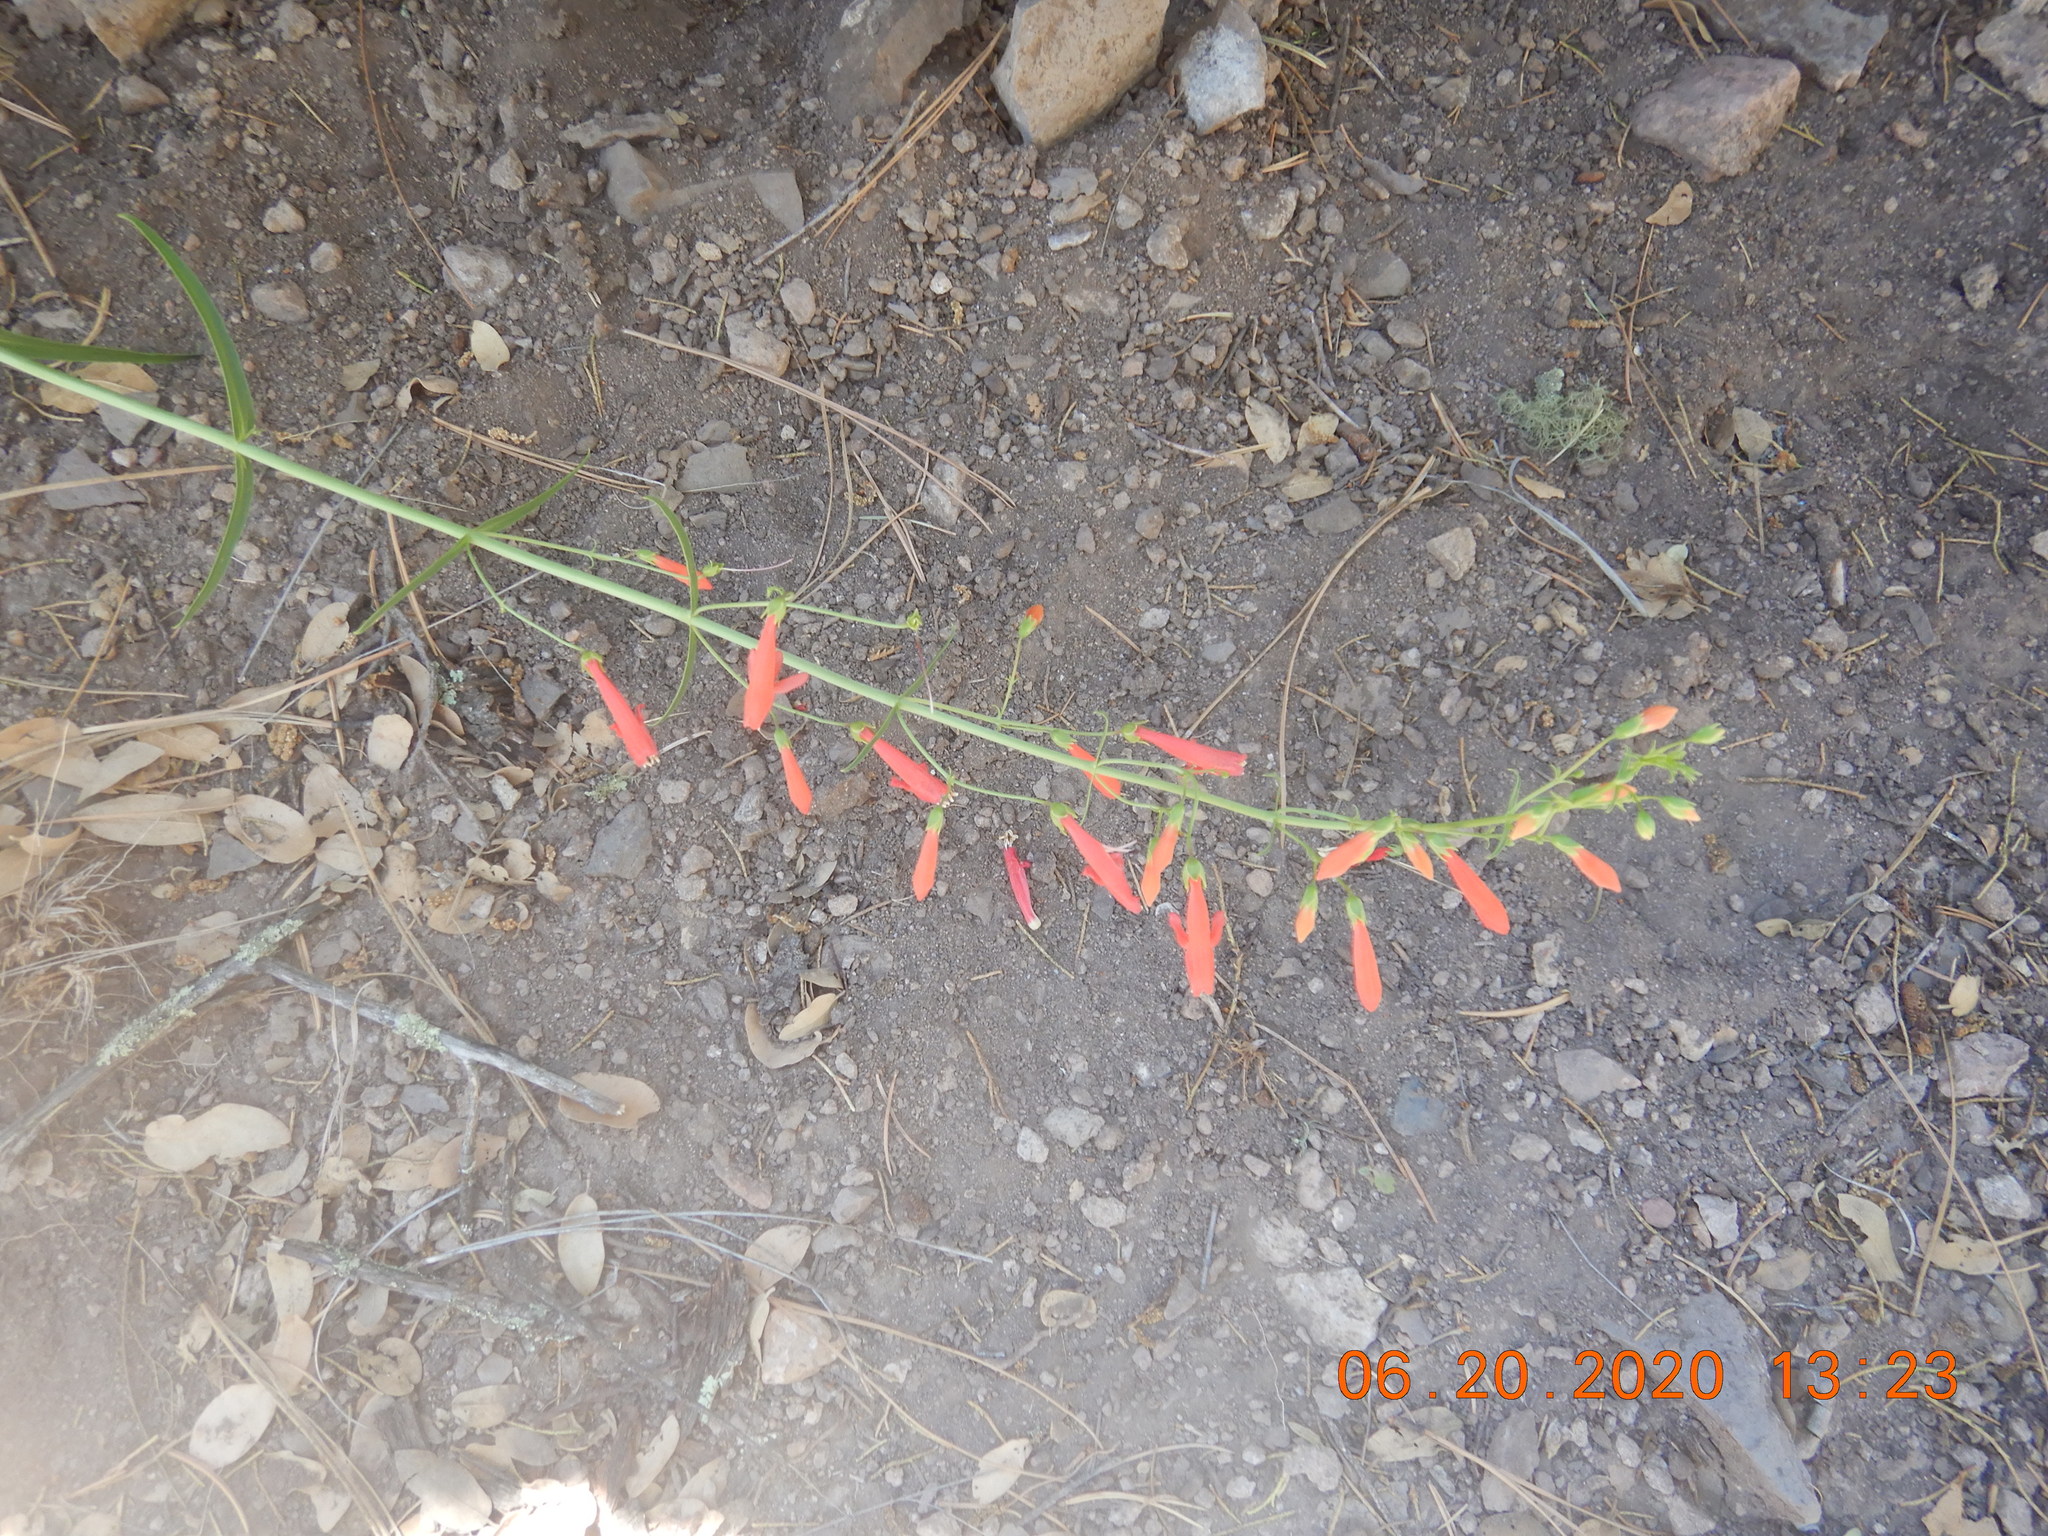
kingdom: Plantae
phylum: Tracheophyta
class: Magnoliopsida
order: Lamiales
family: Plantaginaceae
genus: Penstemon
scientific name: Penstemon barbatus
